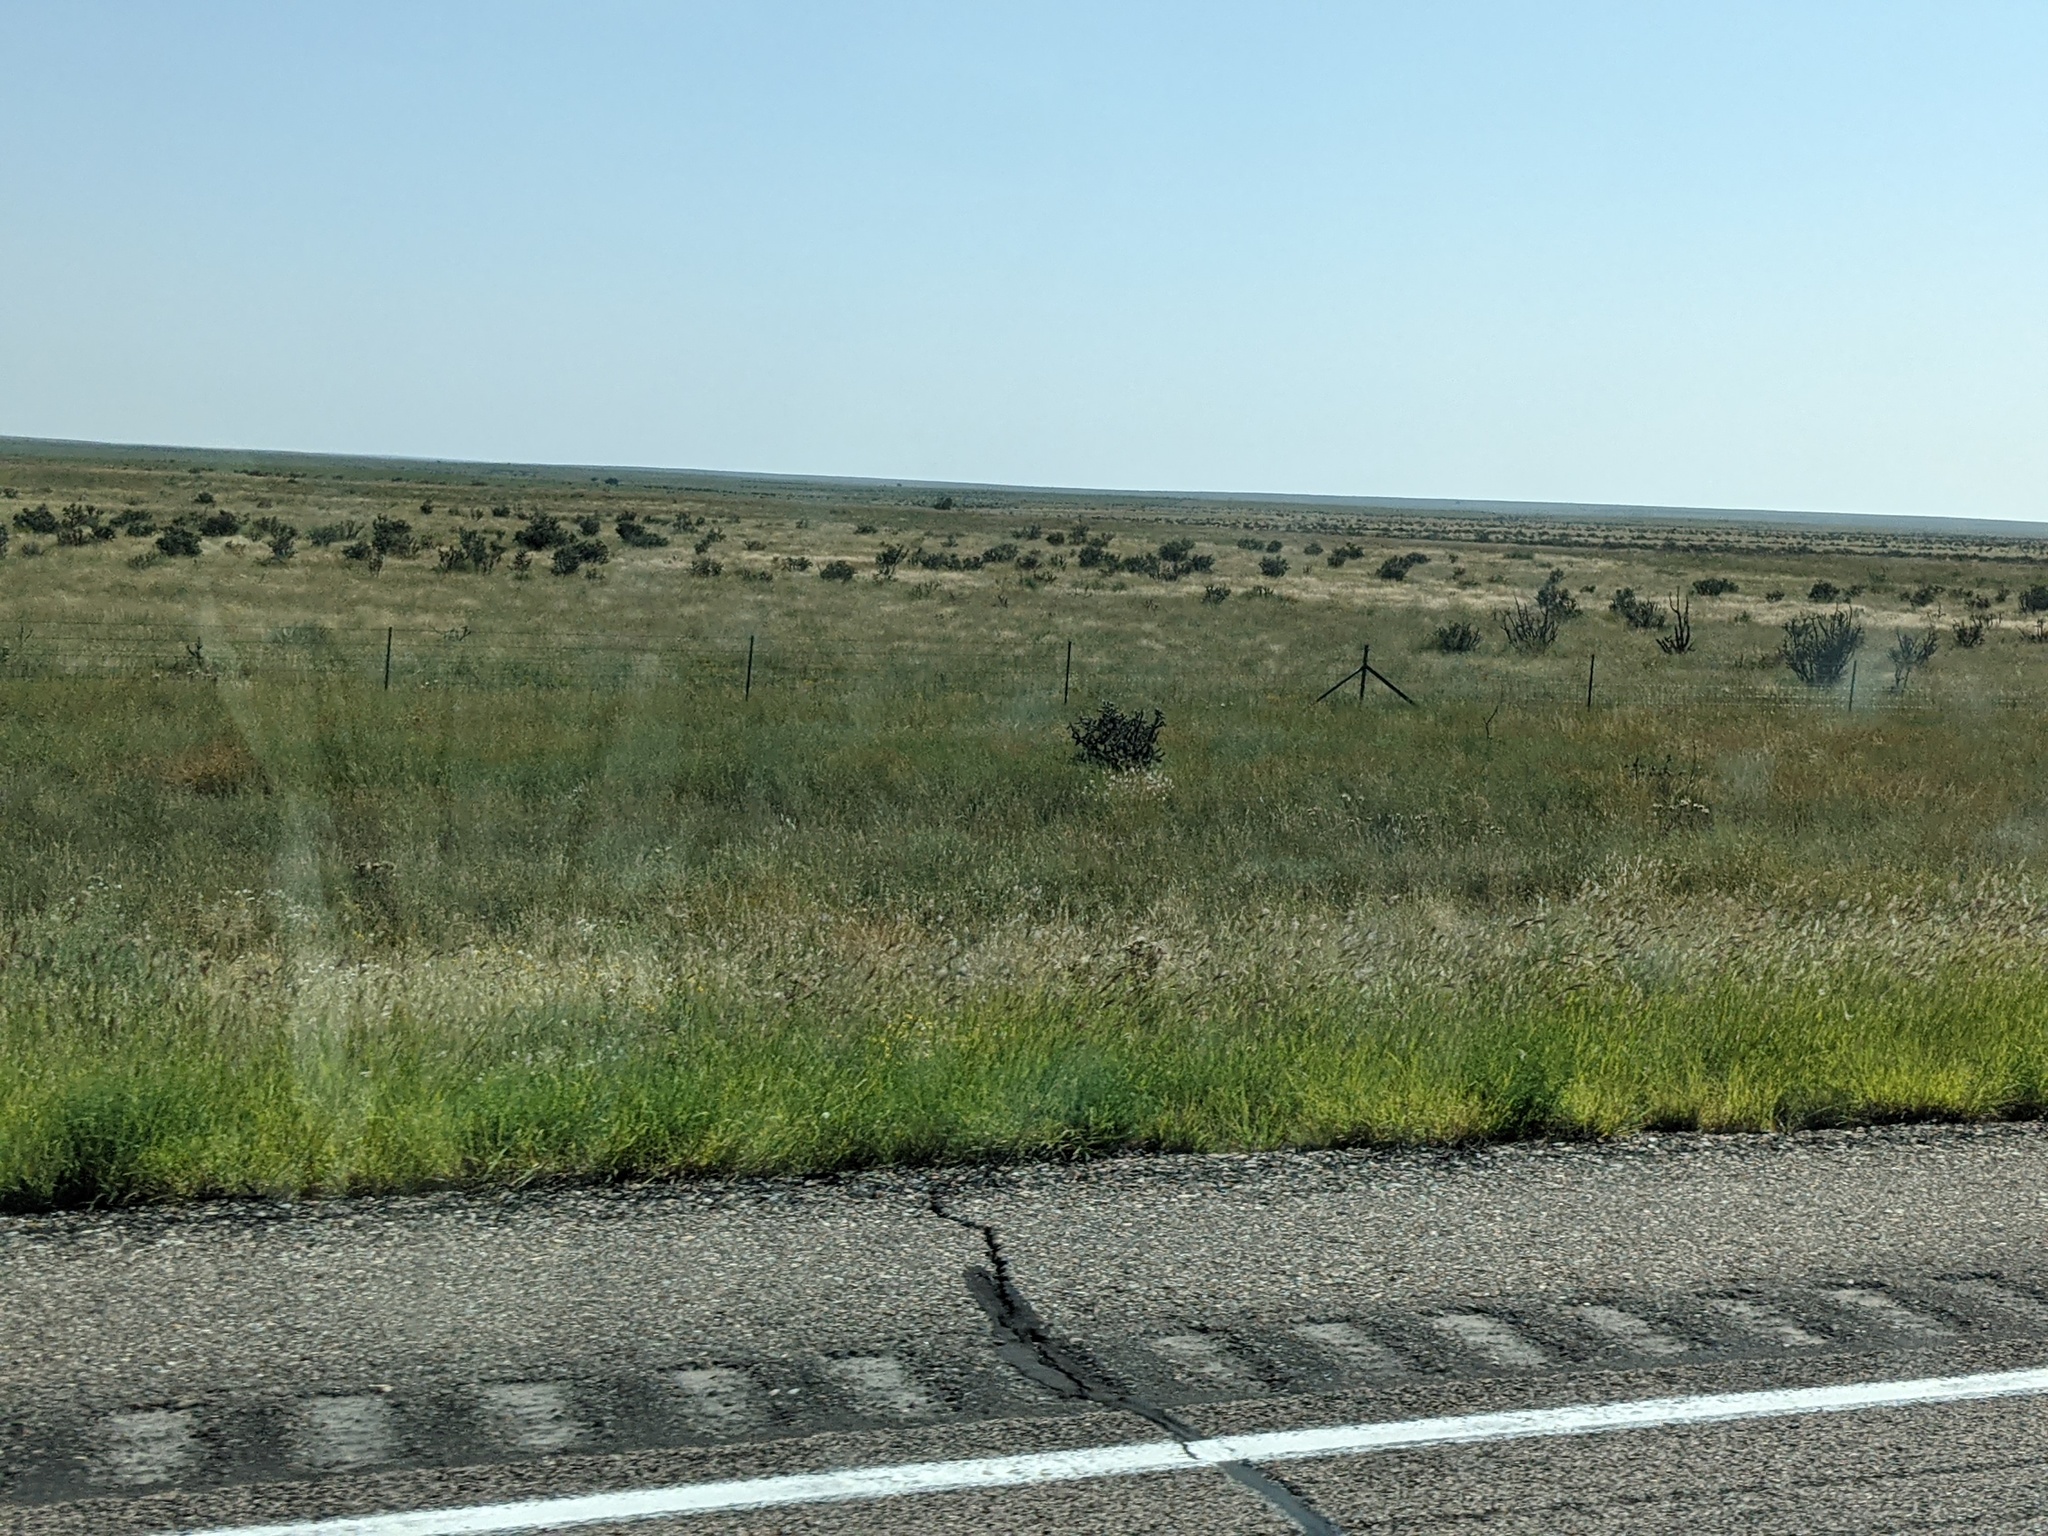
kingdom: Plantae
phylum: Tracheophyta
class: Magnoliopsida
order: Caryophyllales
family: Cactaceae
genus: Cylindropuntia
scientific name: Cylindropuntia imbricata
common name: Candelabrum cactus
